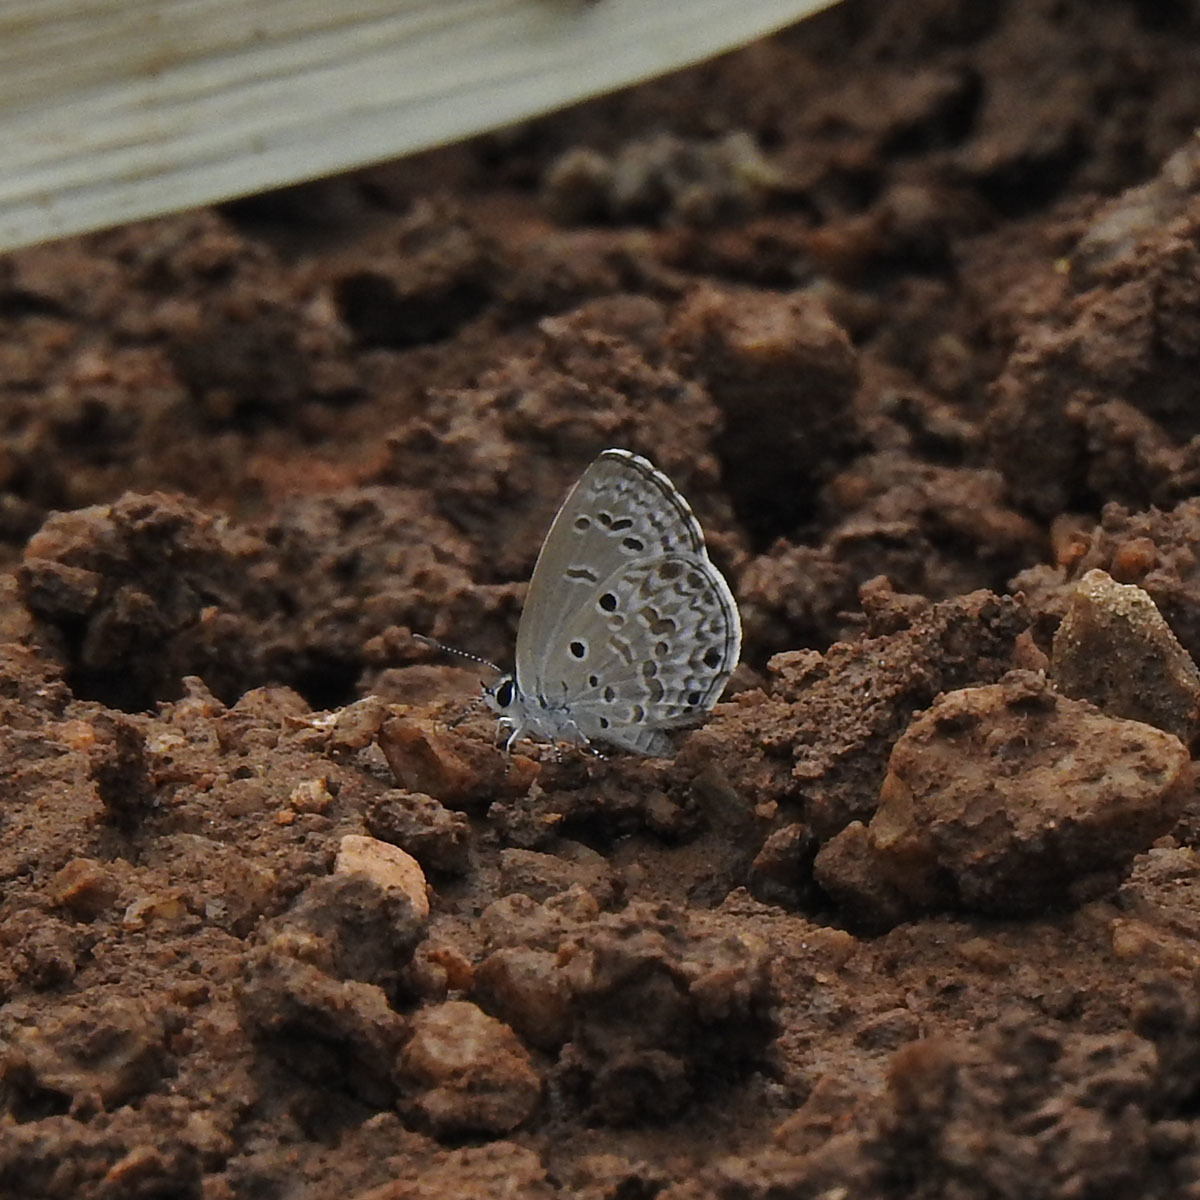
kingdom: Animalia
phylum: Arthropoda
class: Insecta
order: Lepidoptera
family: Lycaenidae
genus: Chilades
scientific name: Chilades laius
